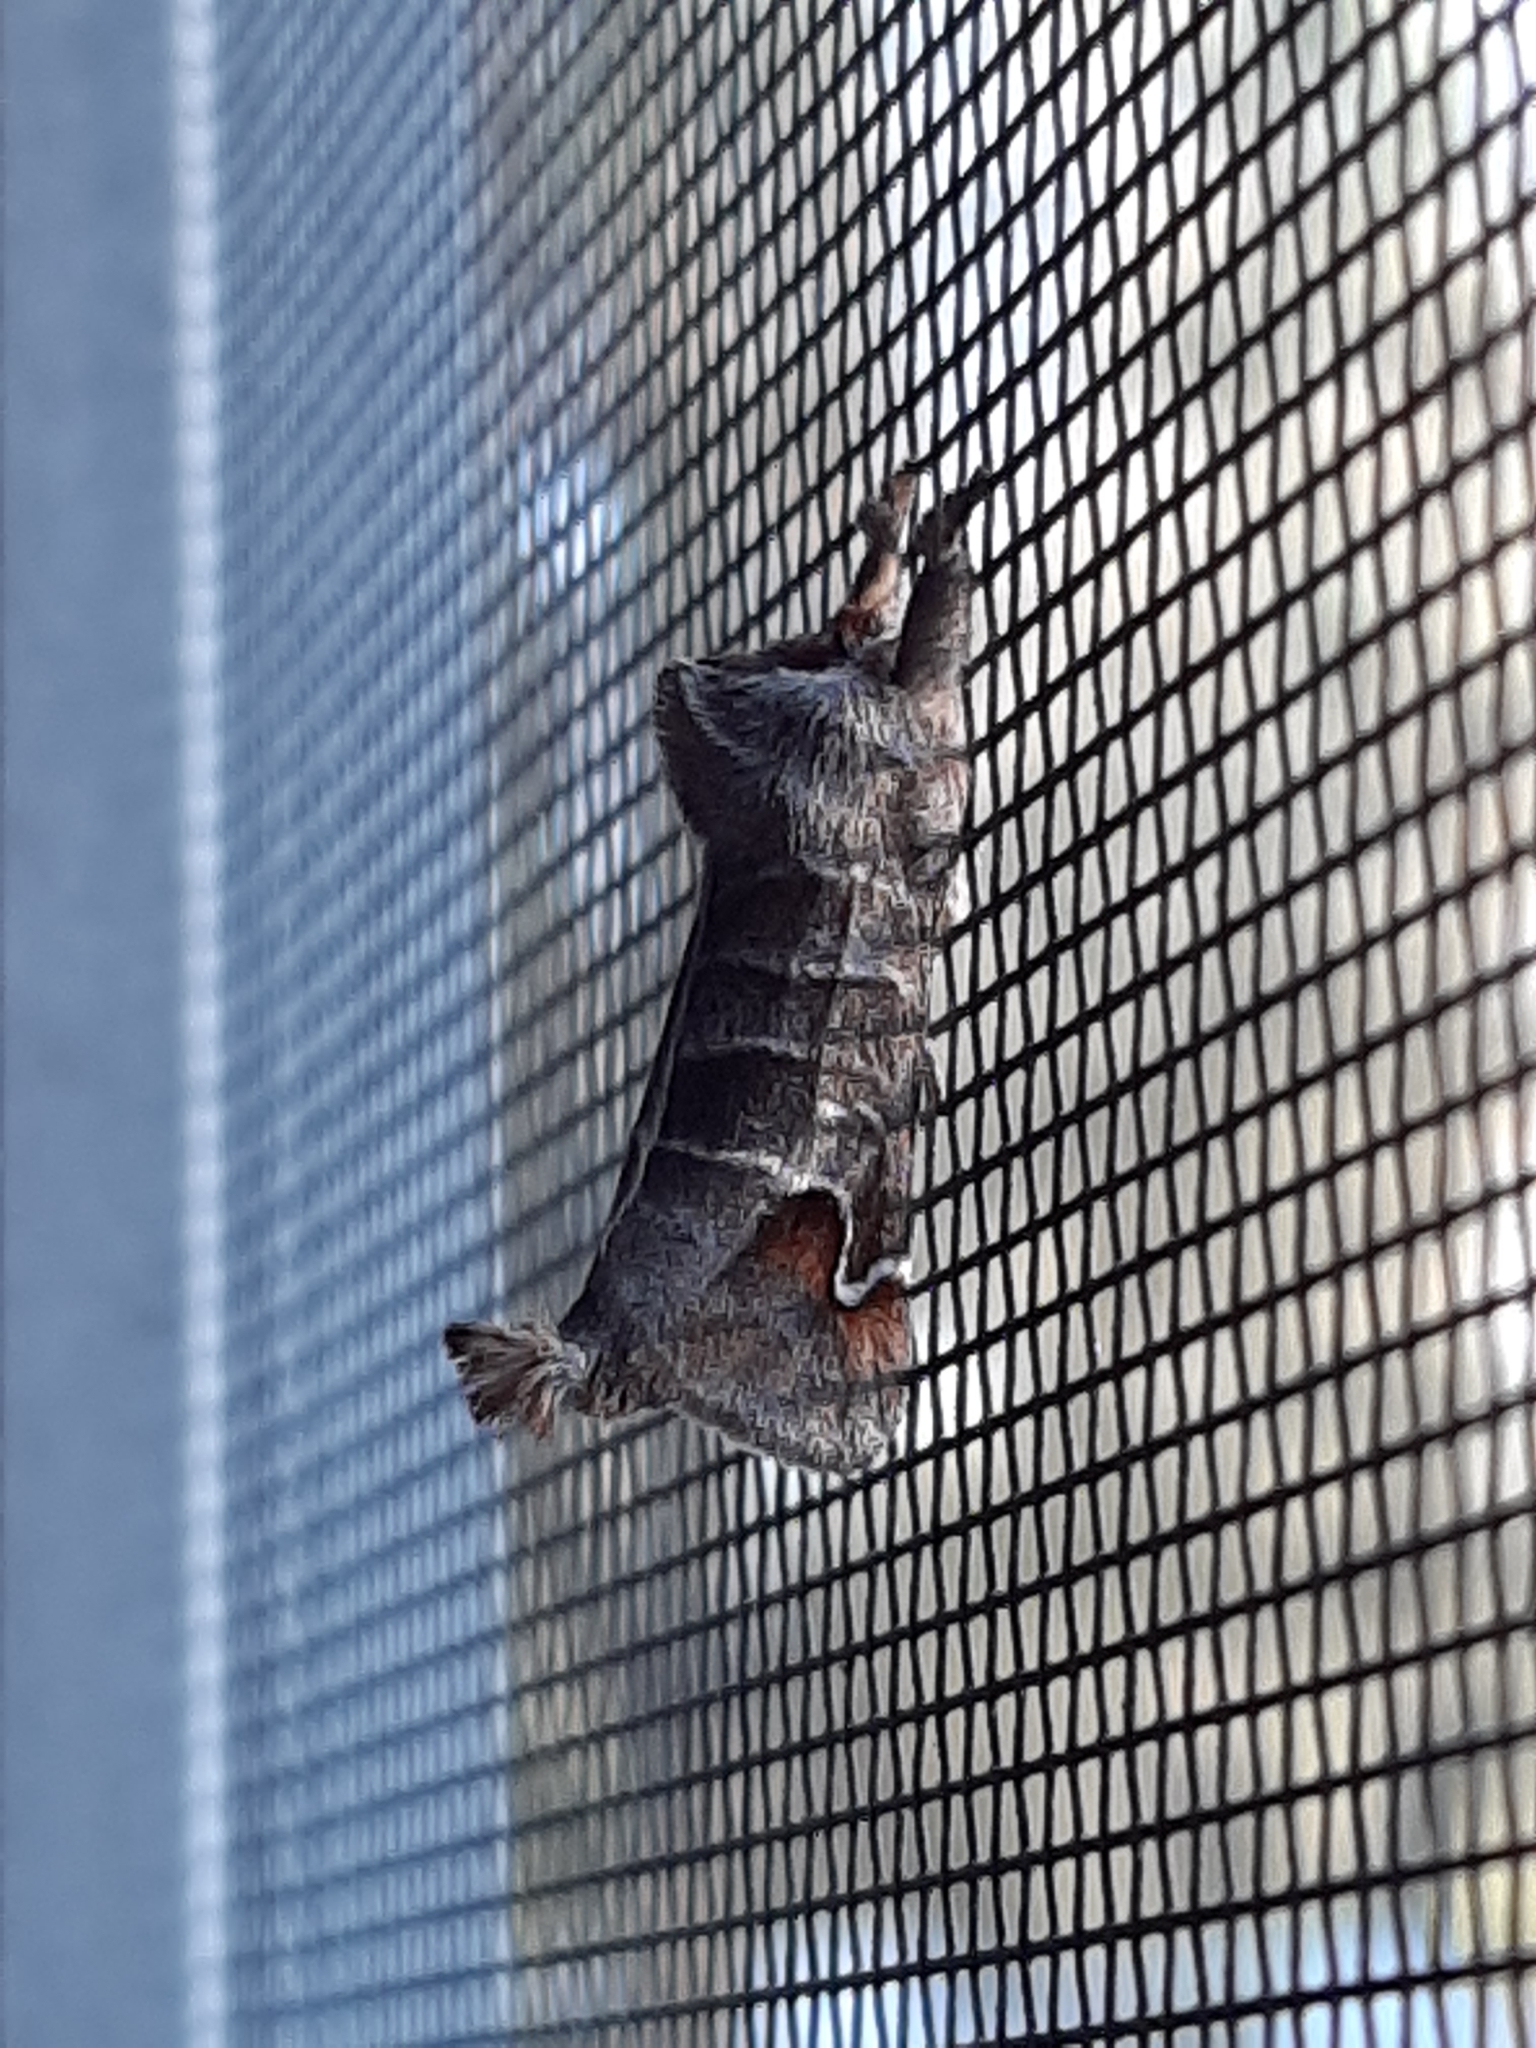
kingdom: Animalia
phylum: Arthropoda
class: Insecta
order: Lepidoptera
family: Notodontidae
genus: Clostera
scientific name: Clostera albosigma
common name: Sigmoid prominent
